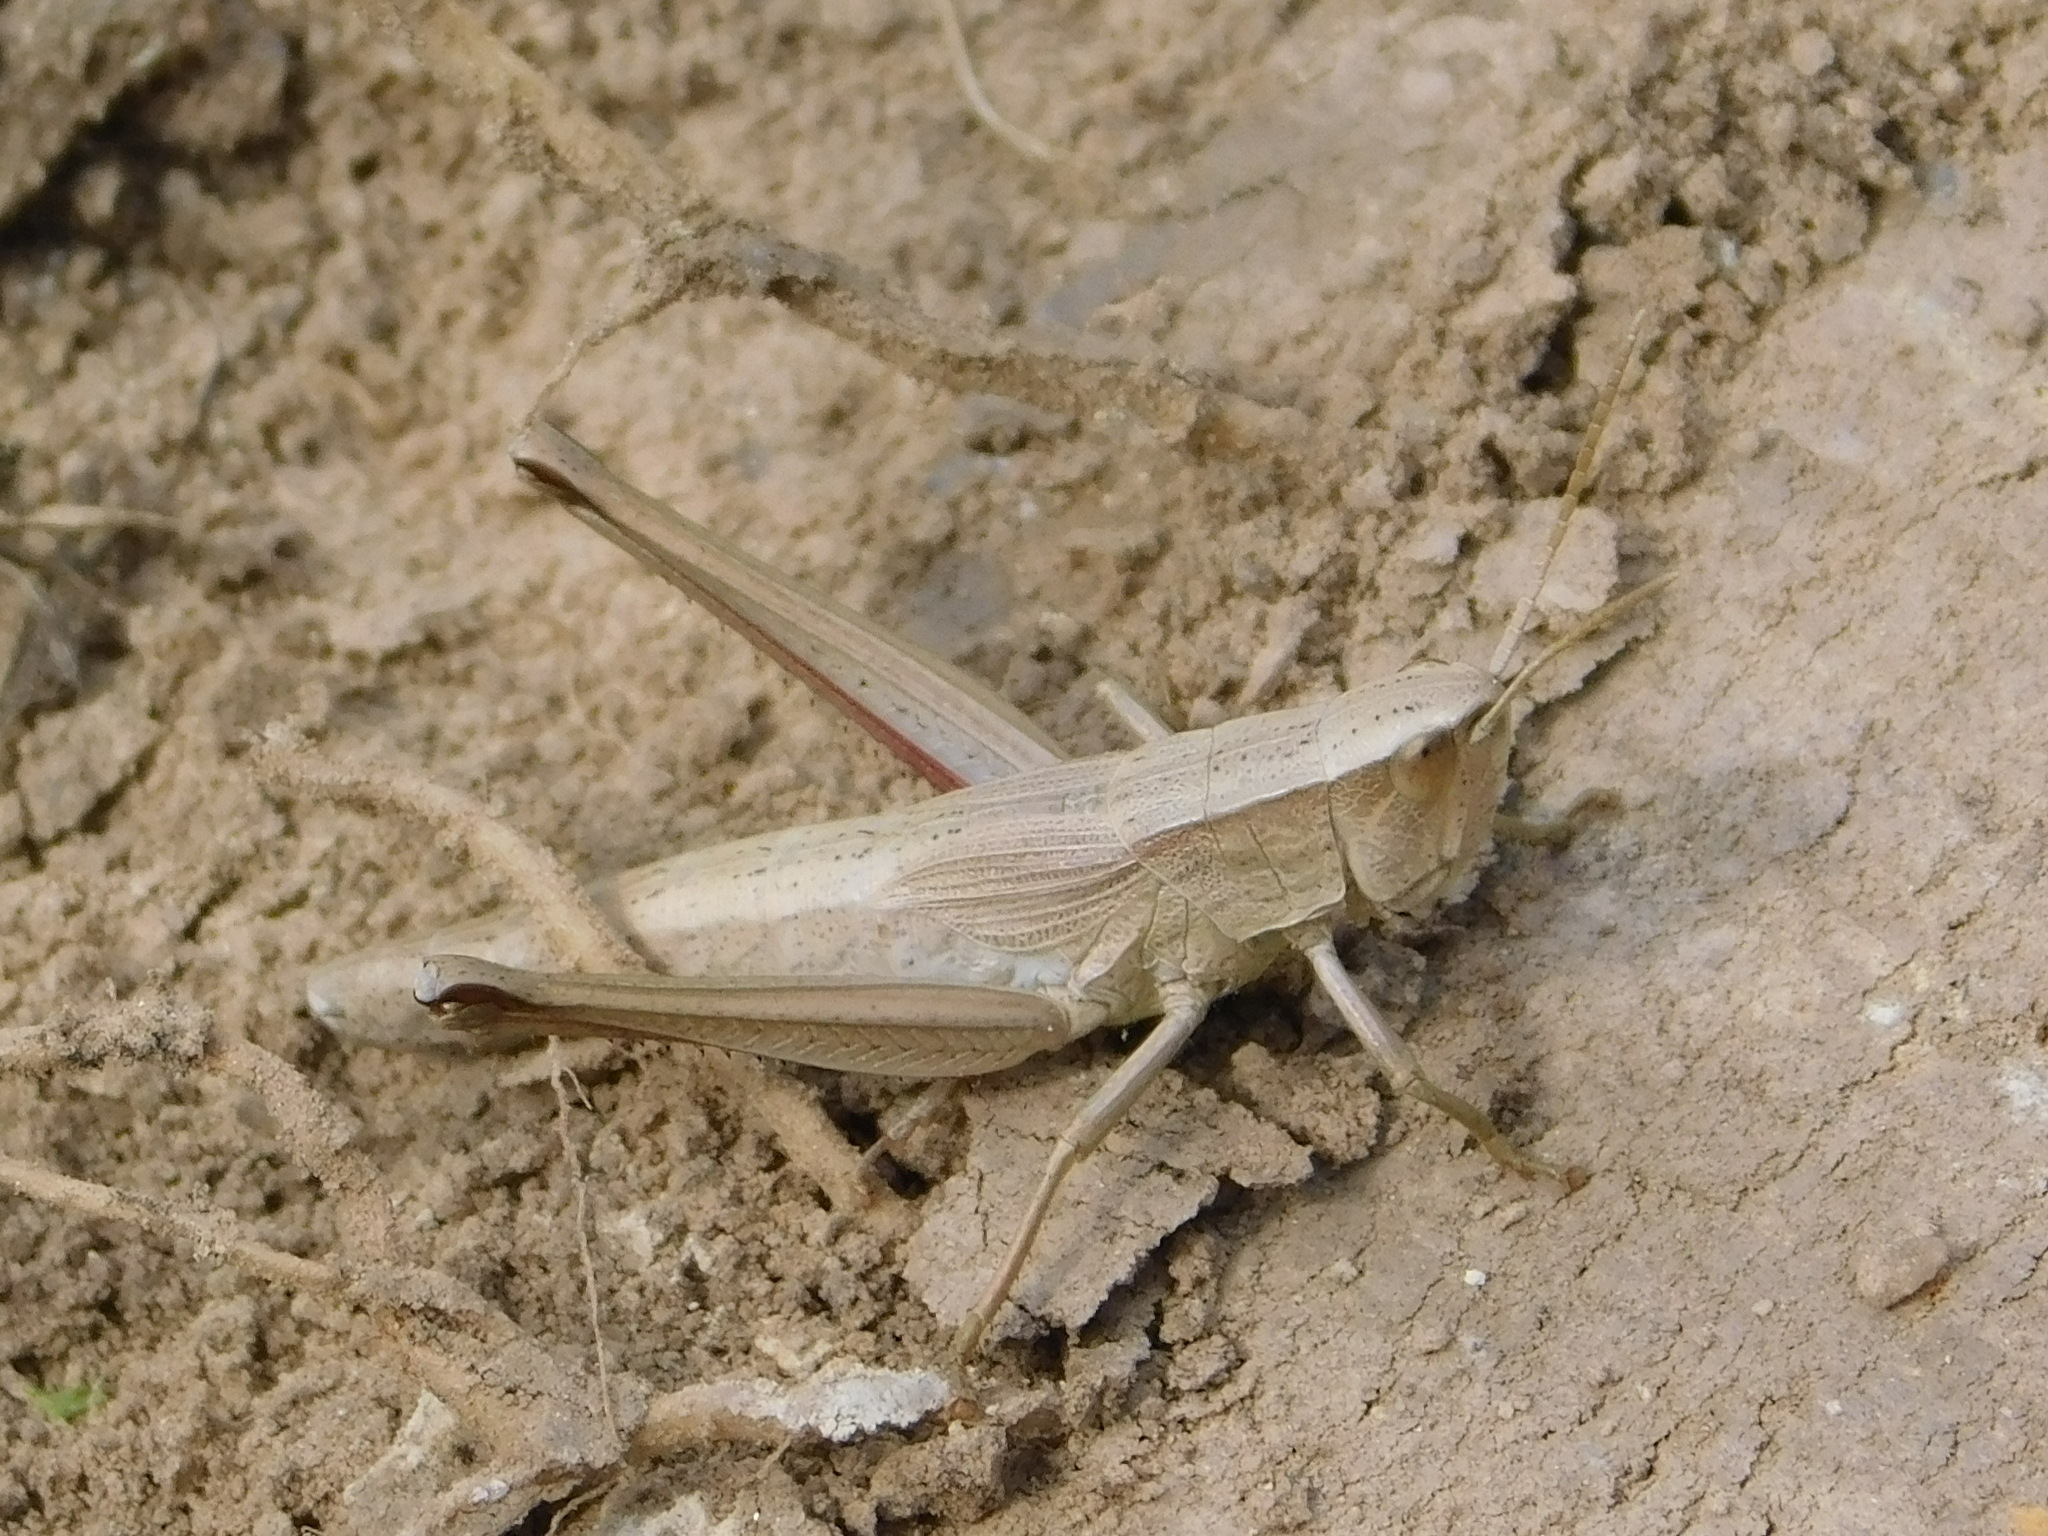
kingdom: Animalia
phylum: Arthropoda
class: Insecta
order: Orthoptera
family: Acrididae
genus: Chrysochraon
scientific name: Chrysochraon dispar
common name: Large gold grasshopper
